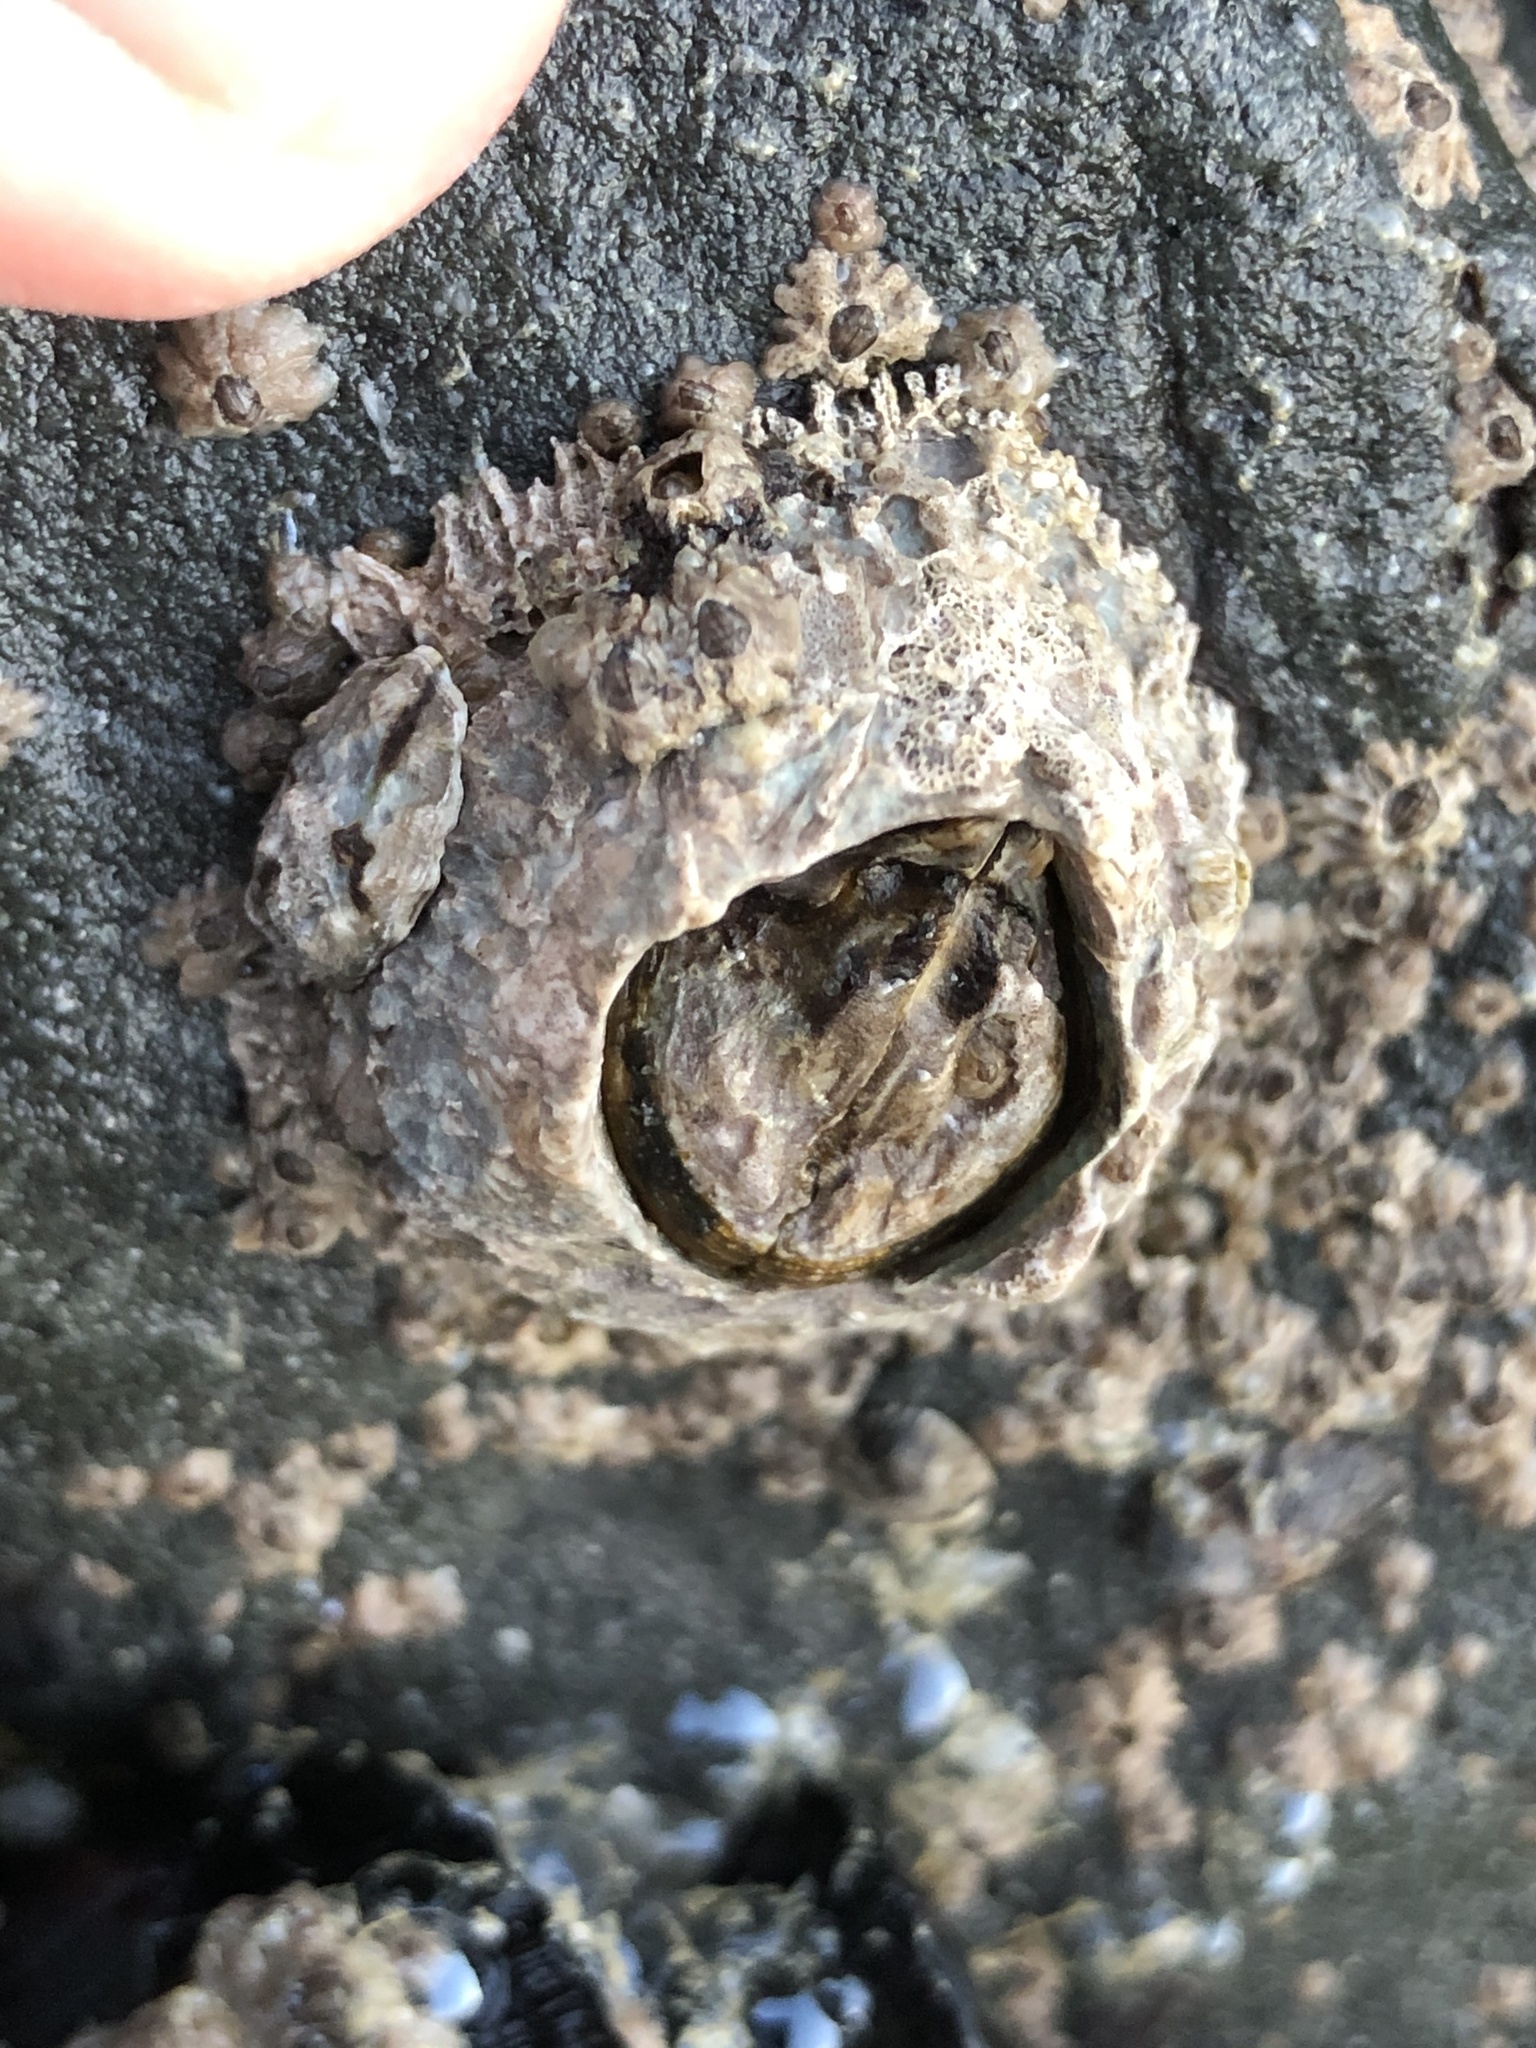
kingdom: Animalia
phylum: Arthropoda
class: Maxillopoda
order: Sessilia
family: Archaeobalanidae
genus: Semibalanus
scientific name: Semibalanus cariosus
